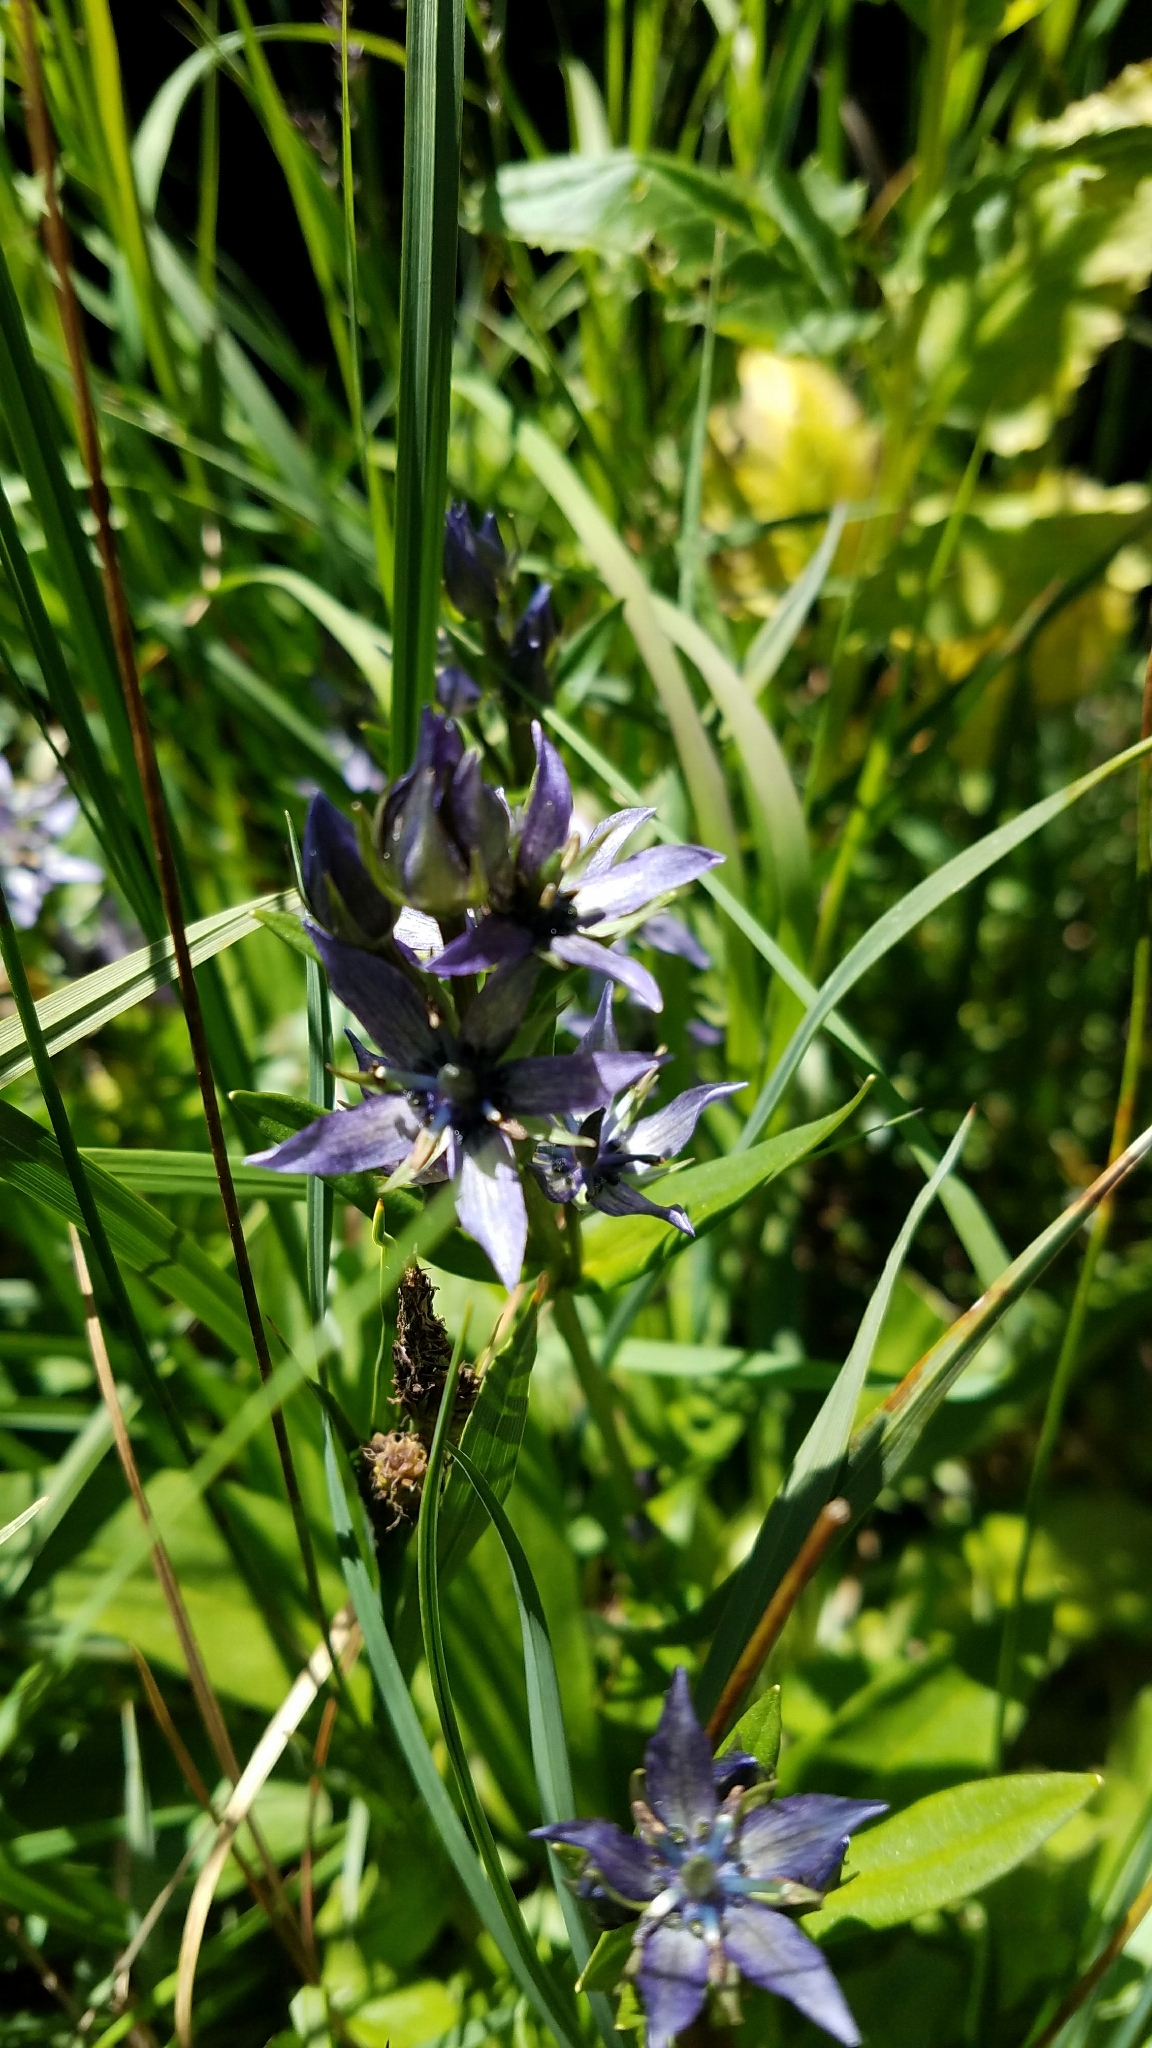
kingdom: Plantae
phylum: Tracheophyta
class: Magnoliopsida
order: Gentianales
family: Gentianaceae
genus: Swertia
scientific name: Swertia perennis
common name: Alpine bog swertia
